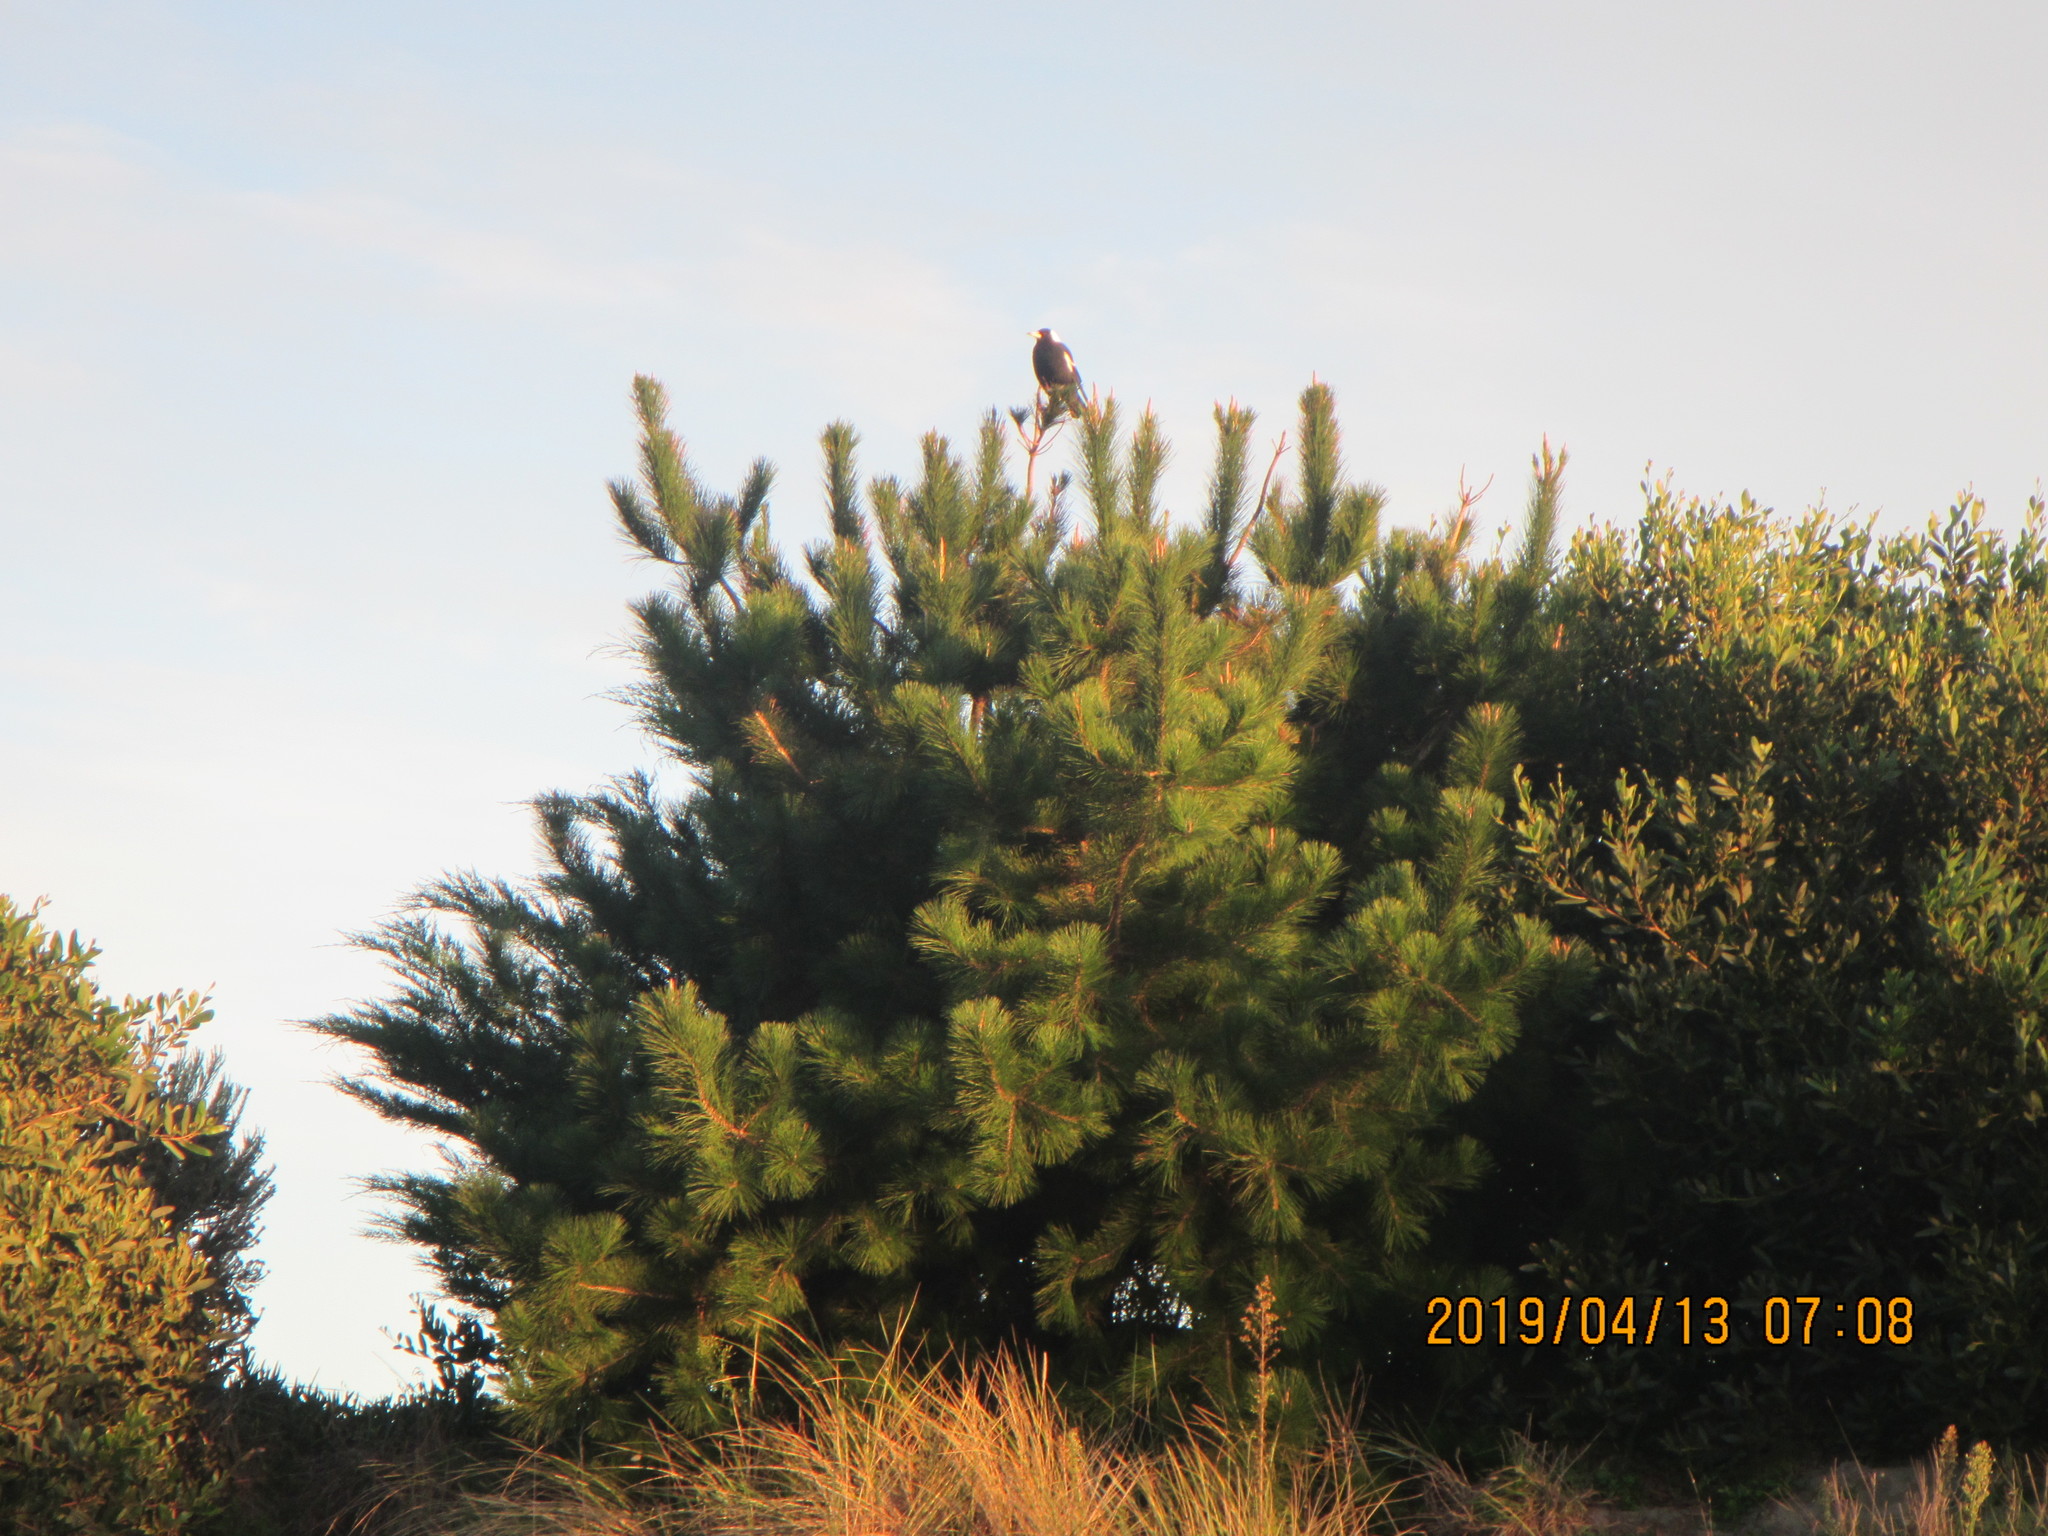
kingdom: Animalia
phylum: Chordata
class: Aves
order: Passeriformes
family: Cracticidae
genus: Gymnorhina
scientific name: Gymnorhina tibicen
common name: Australian magpie
